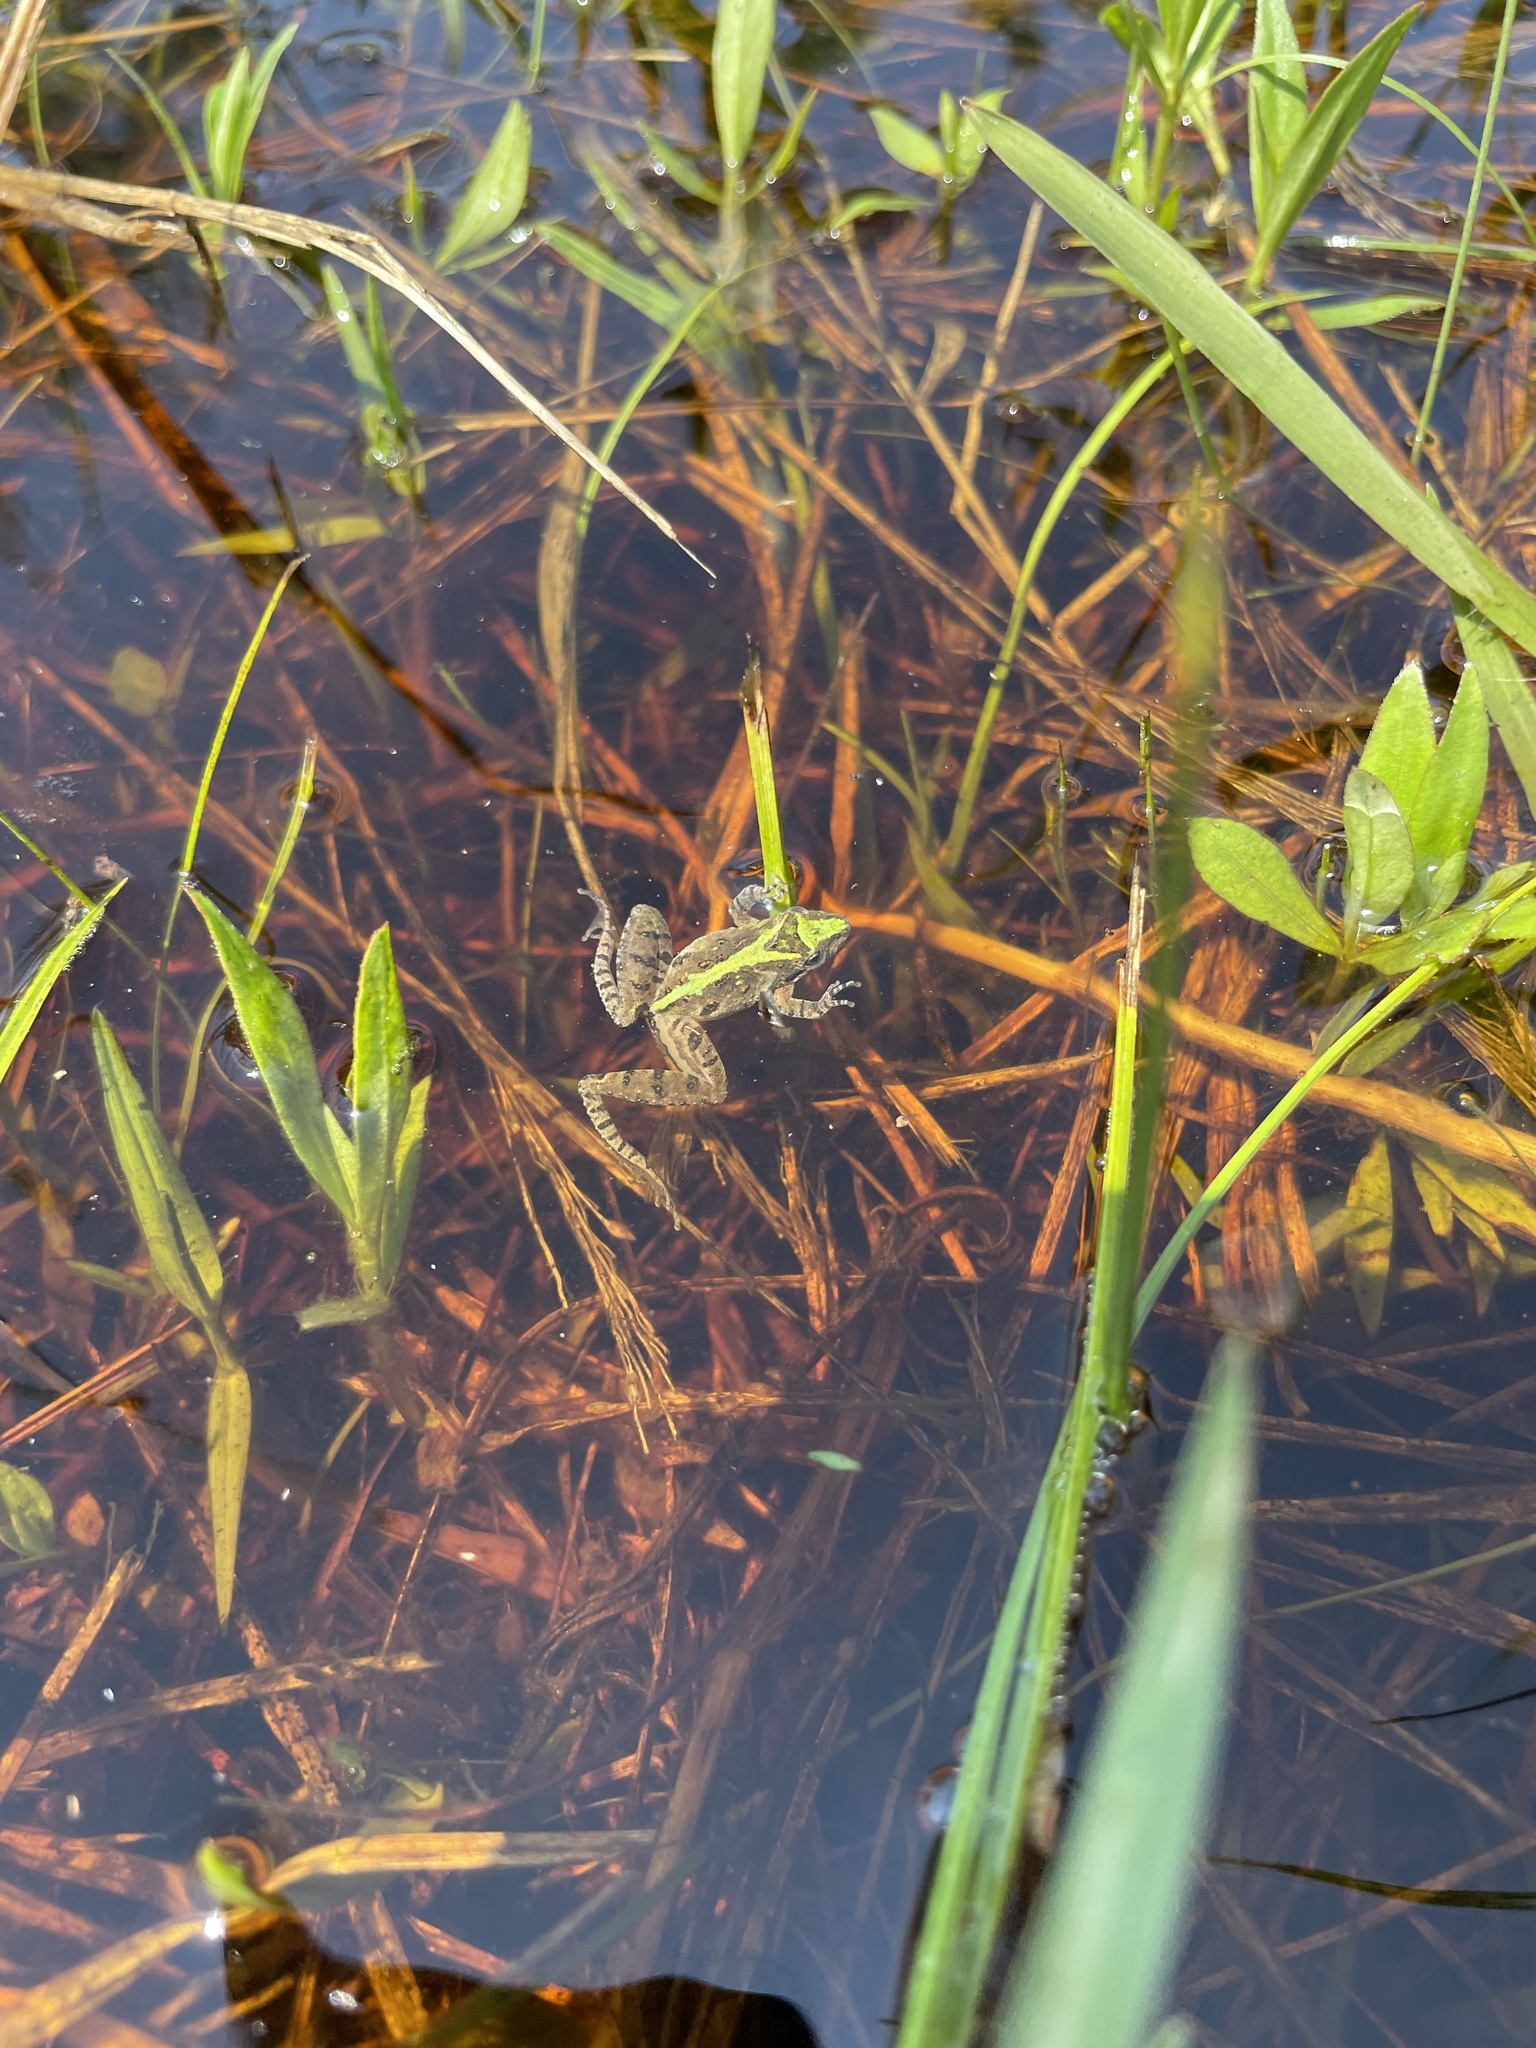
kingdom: Animalia
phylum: Chordata
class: Amphibia
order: Anura
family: Hylidae
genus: Acris
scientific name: Acris gryllus
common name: Southern cricket frog
